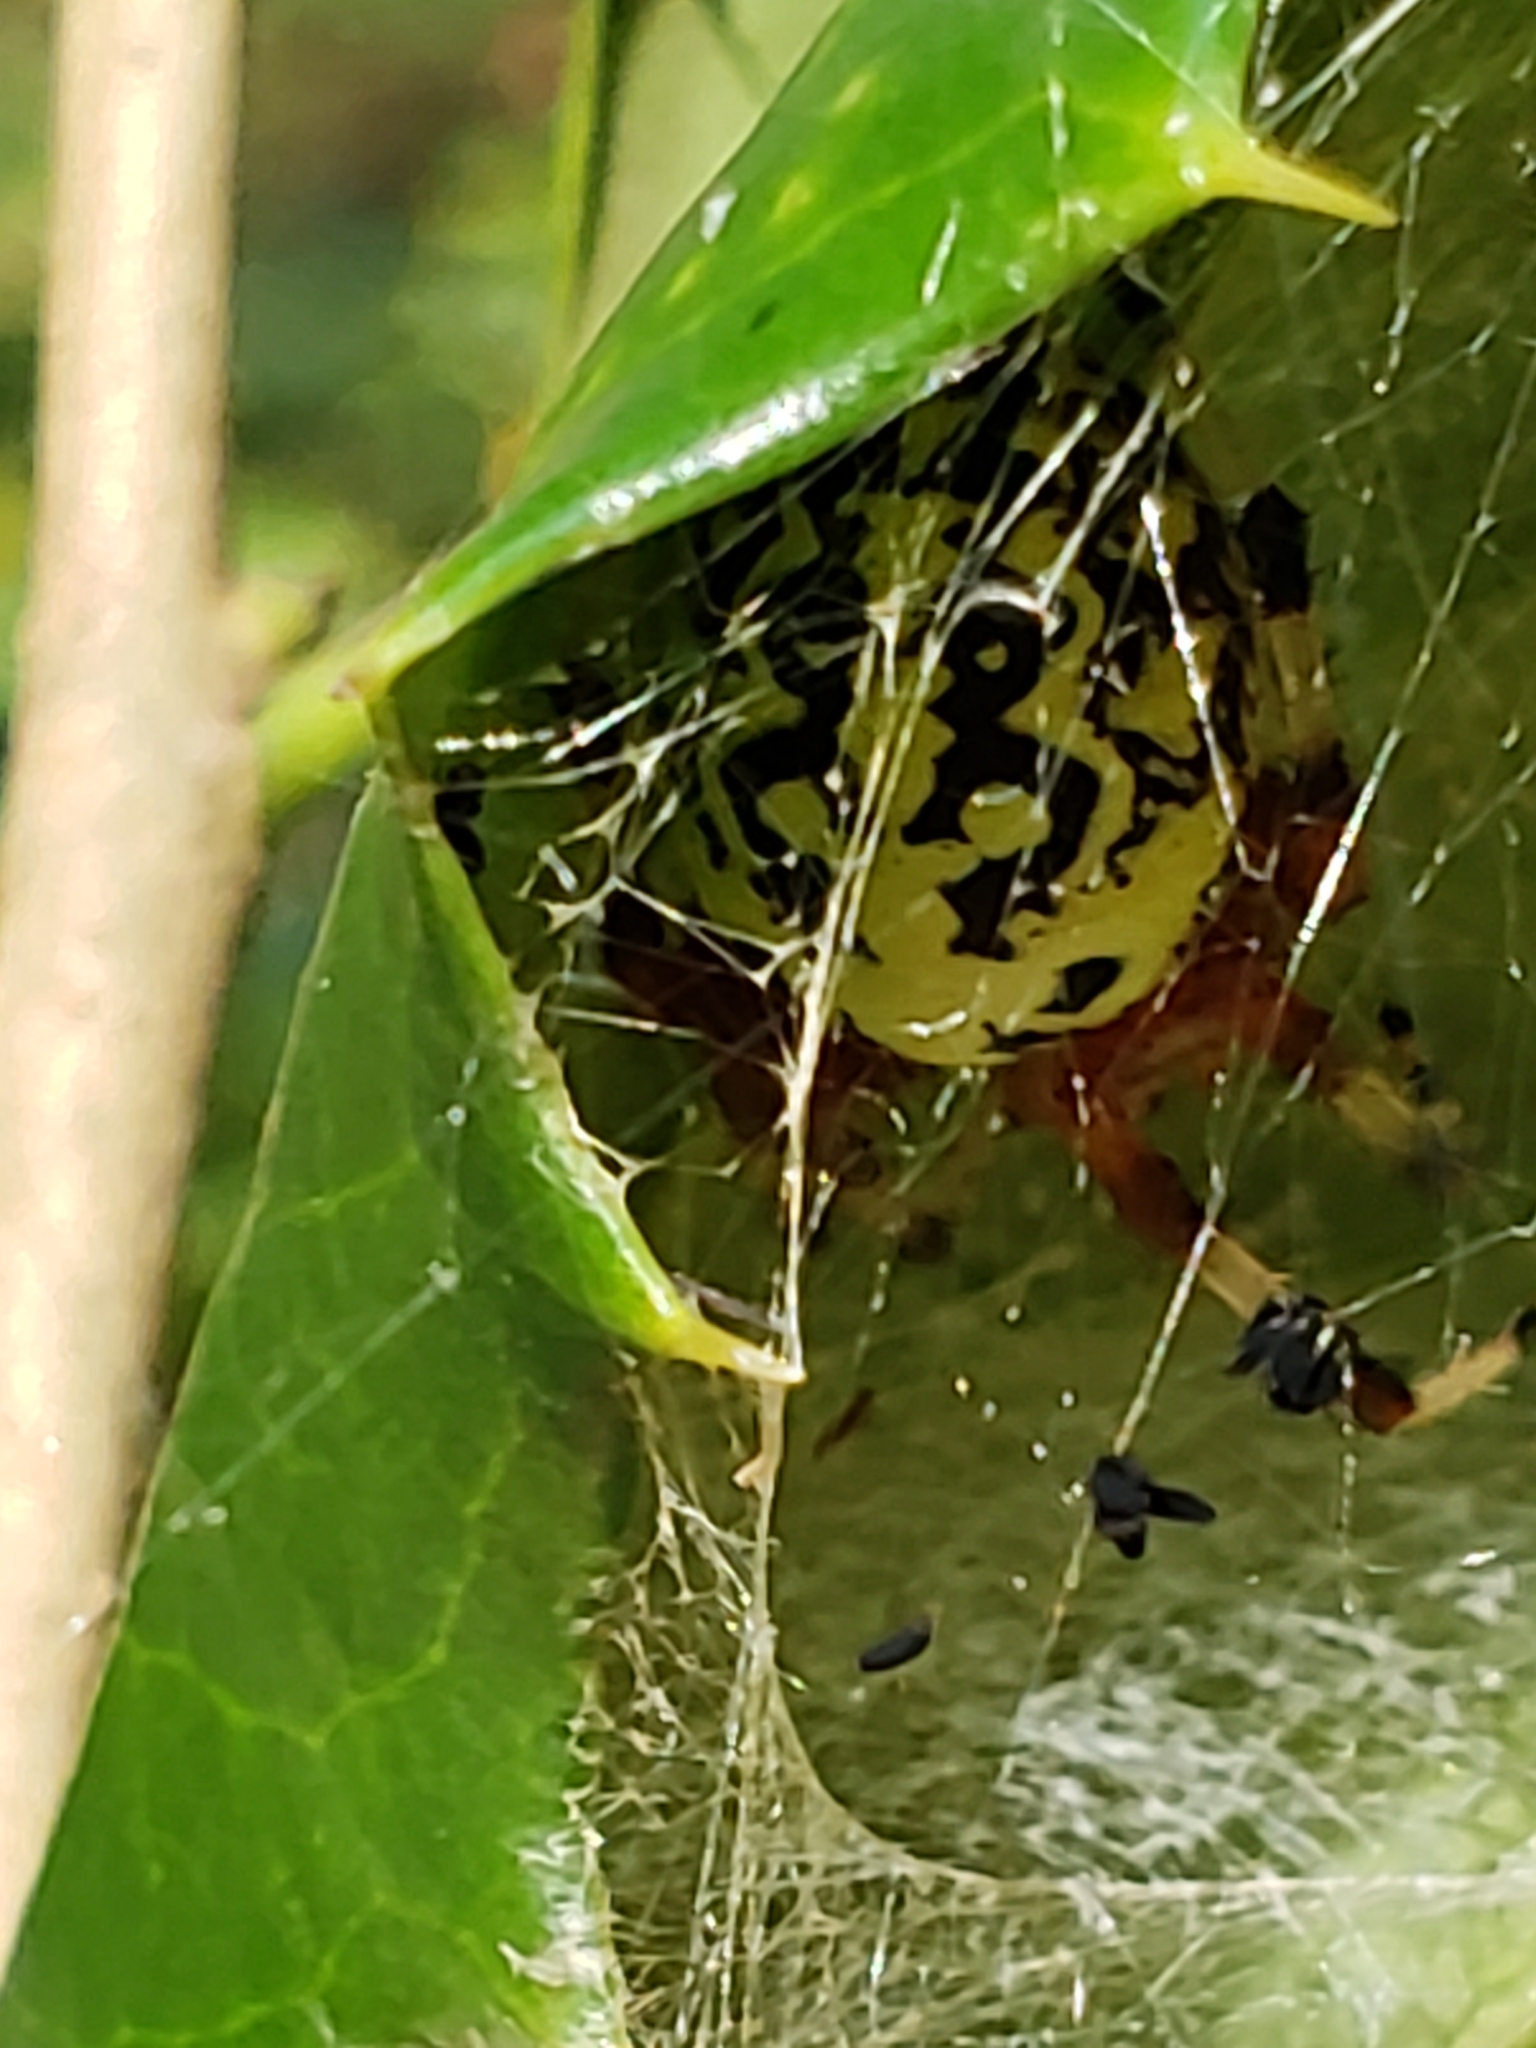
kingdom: Animalia
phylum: Arthropoda
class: Arachnida
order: Araneae
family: Araneidae
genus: Araneus
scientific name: Araneus marmoreus
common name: Marbled orbweaver
